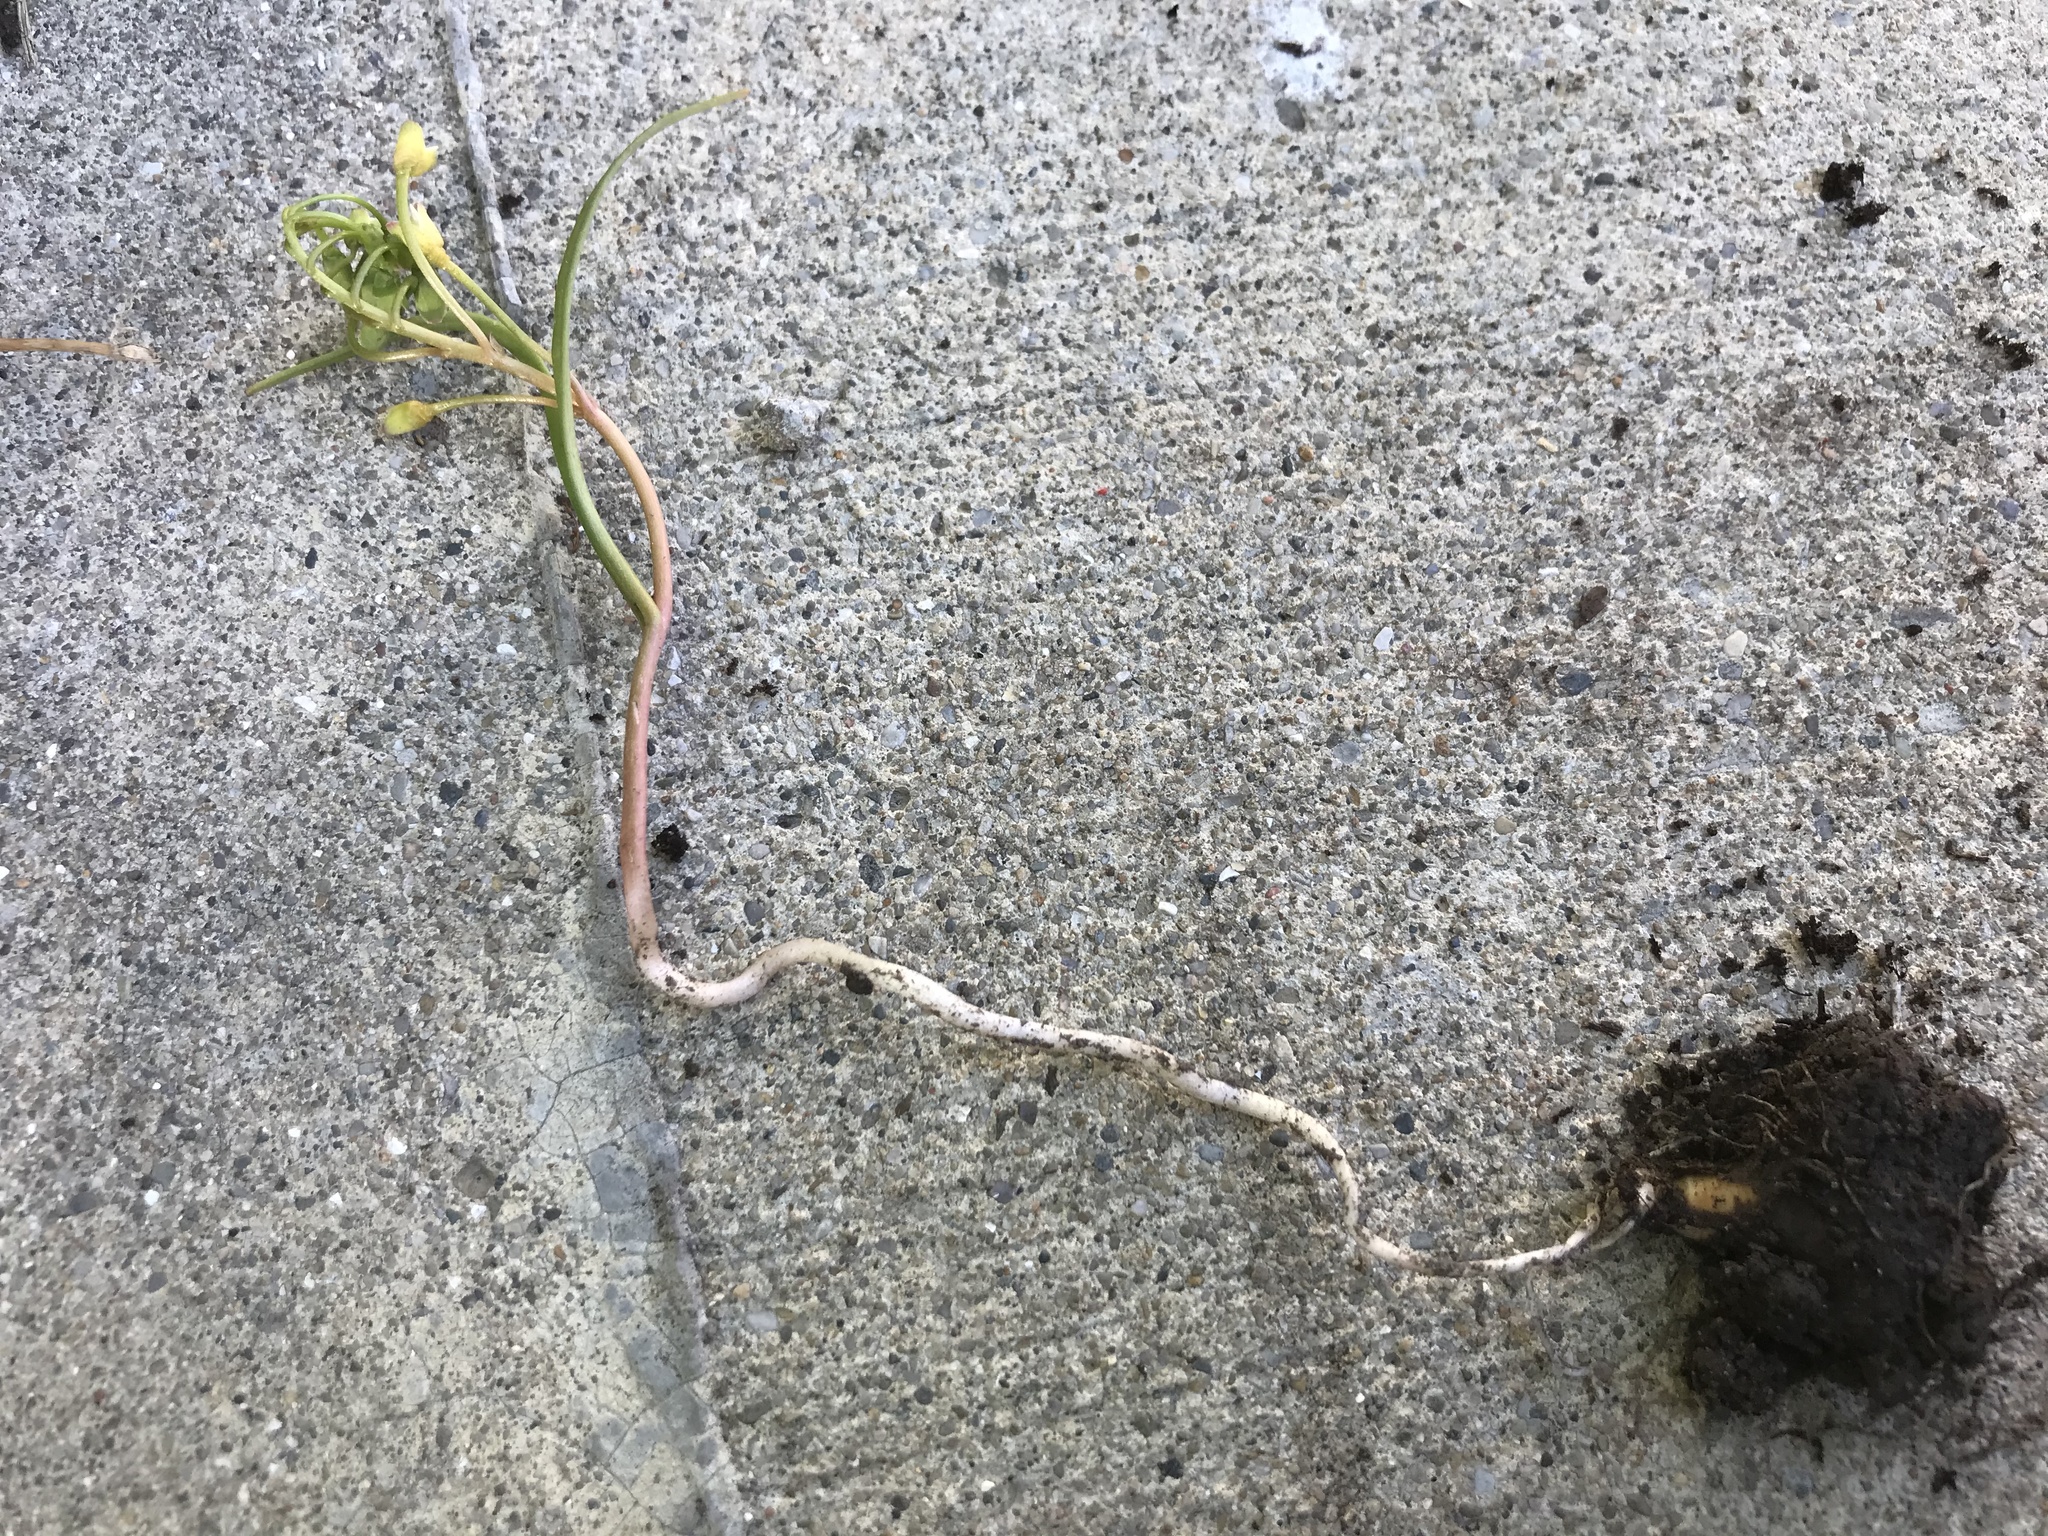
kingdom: Plantae
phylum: Tracheophyta
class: Magnoliopsida
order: Caryophyllales
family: Montiaceae
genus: Claytonia
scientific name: Claytonia virginica
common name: Virginia springbeauty
